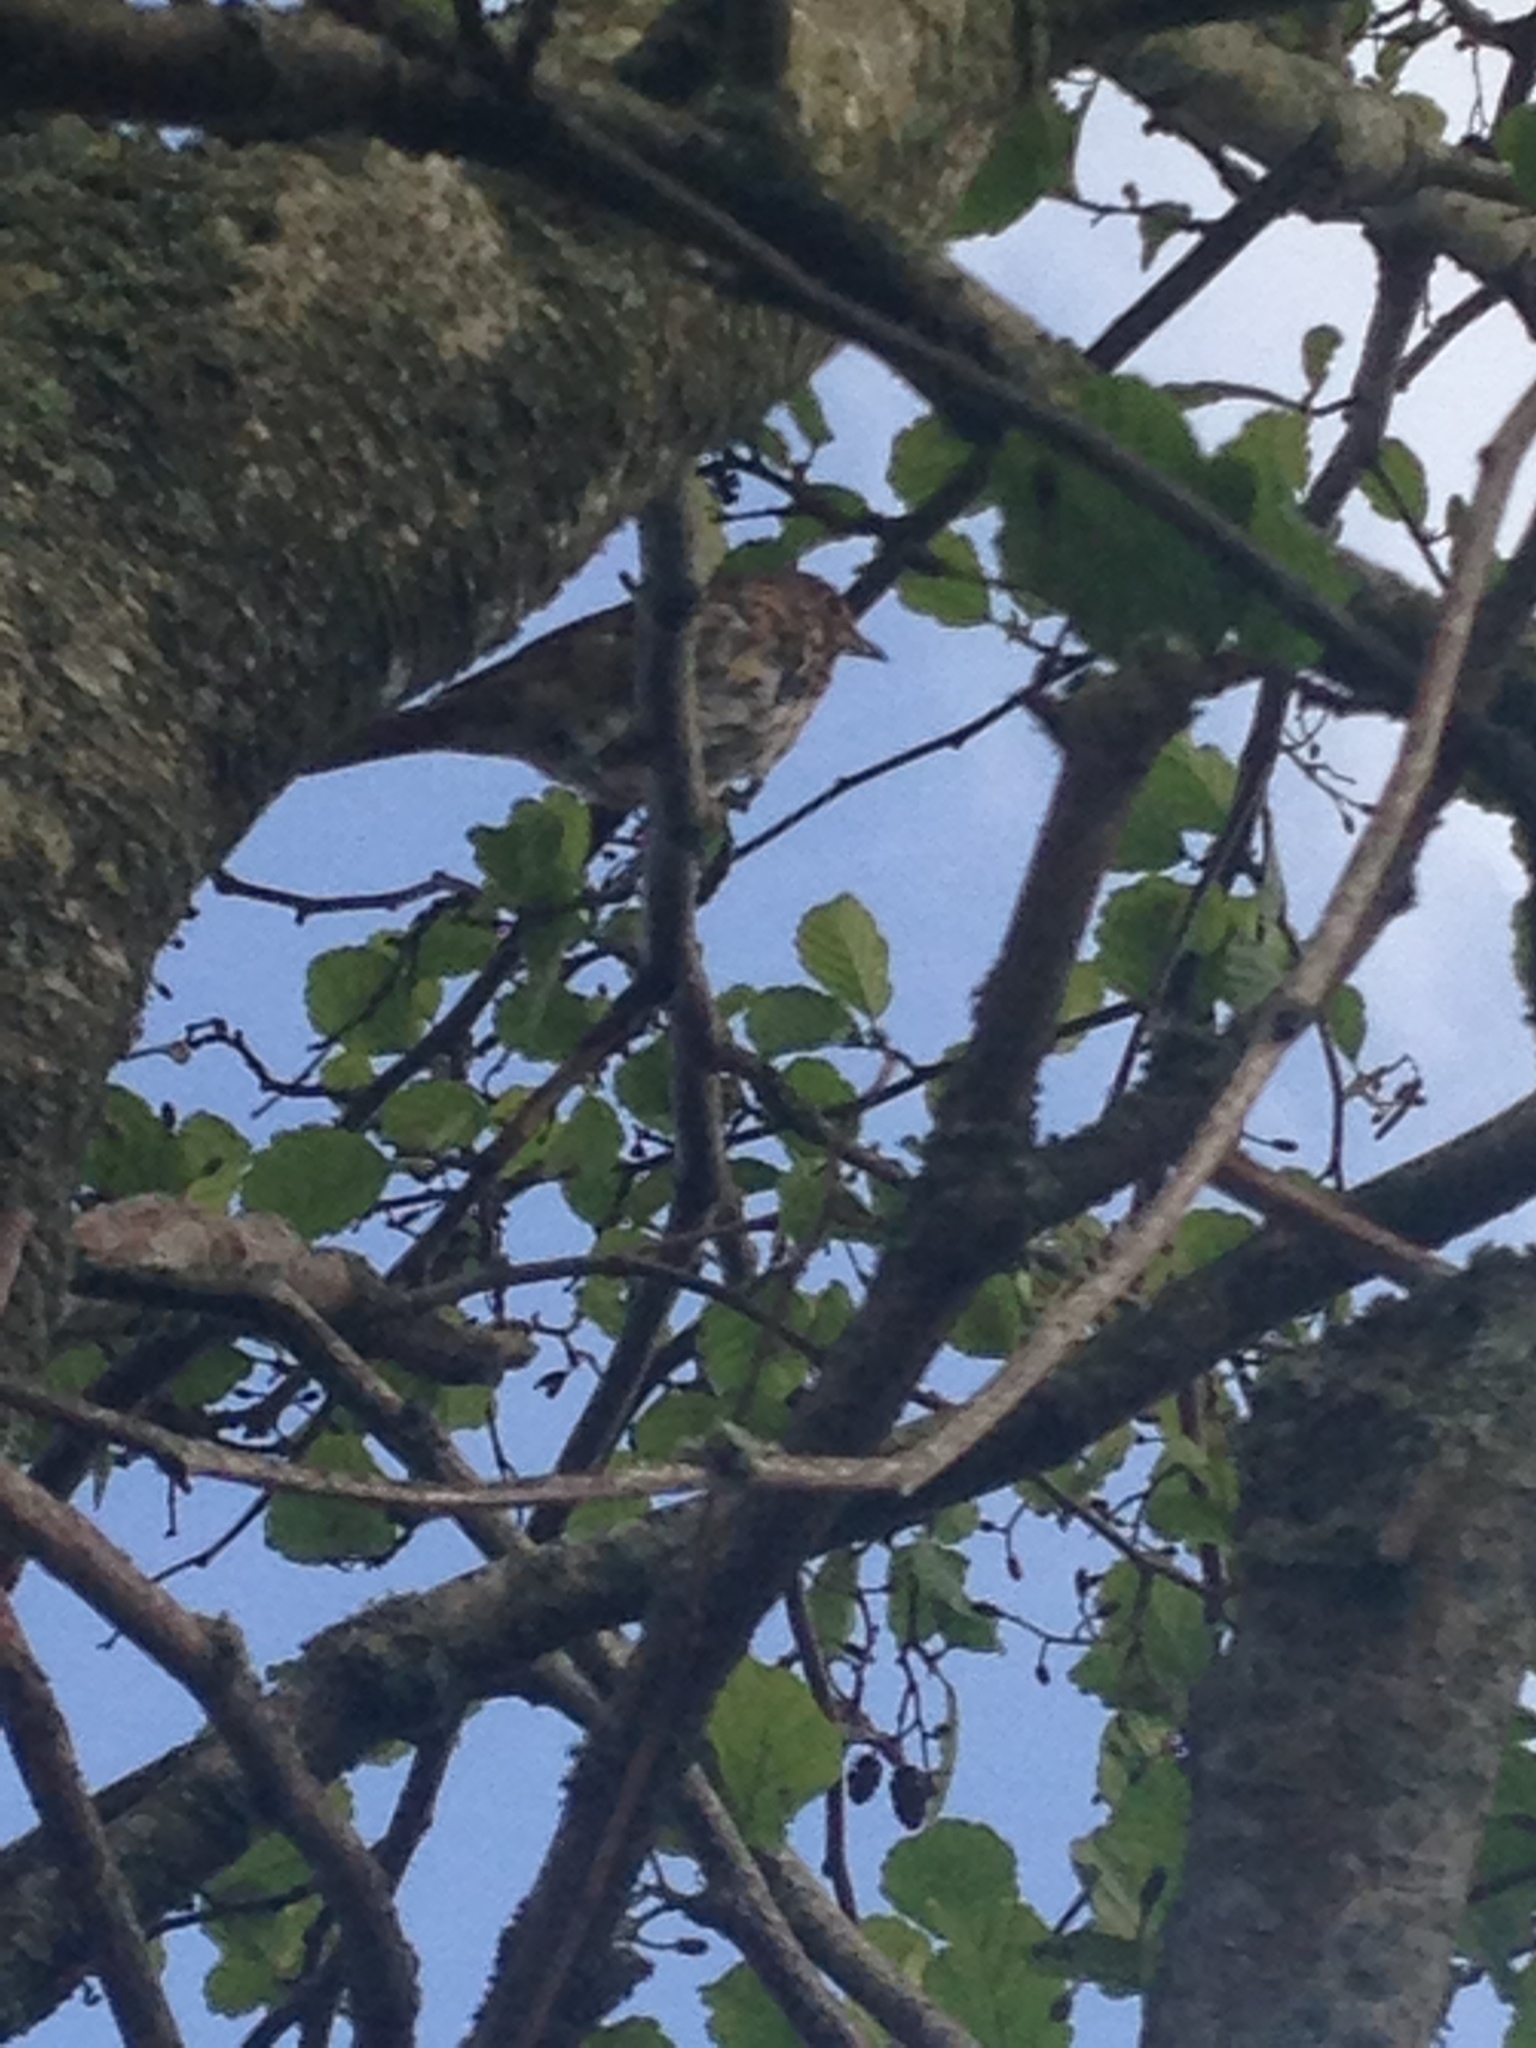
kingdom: Animalia
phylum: Chordata
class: Aves
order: Passeriformes
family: Turdidae
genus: Turdus
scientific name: Turdus philomelos
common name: Song thrush
